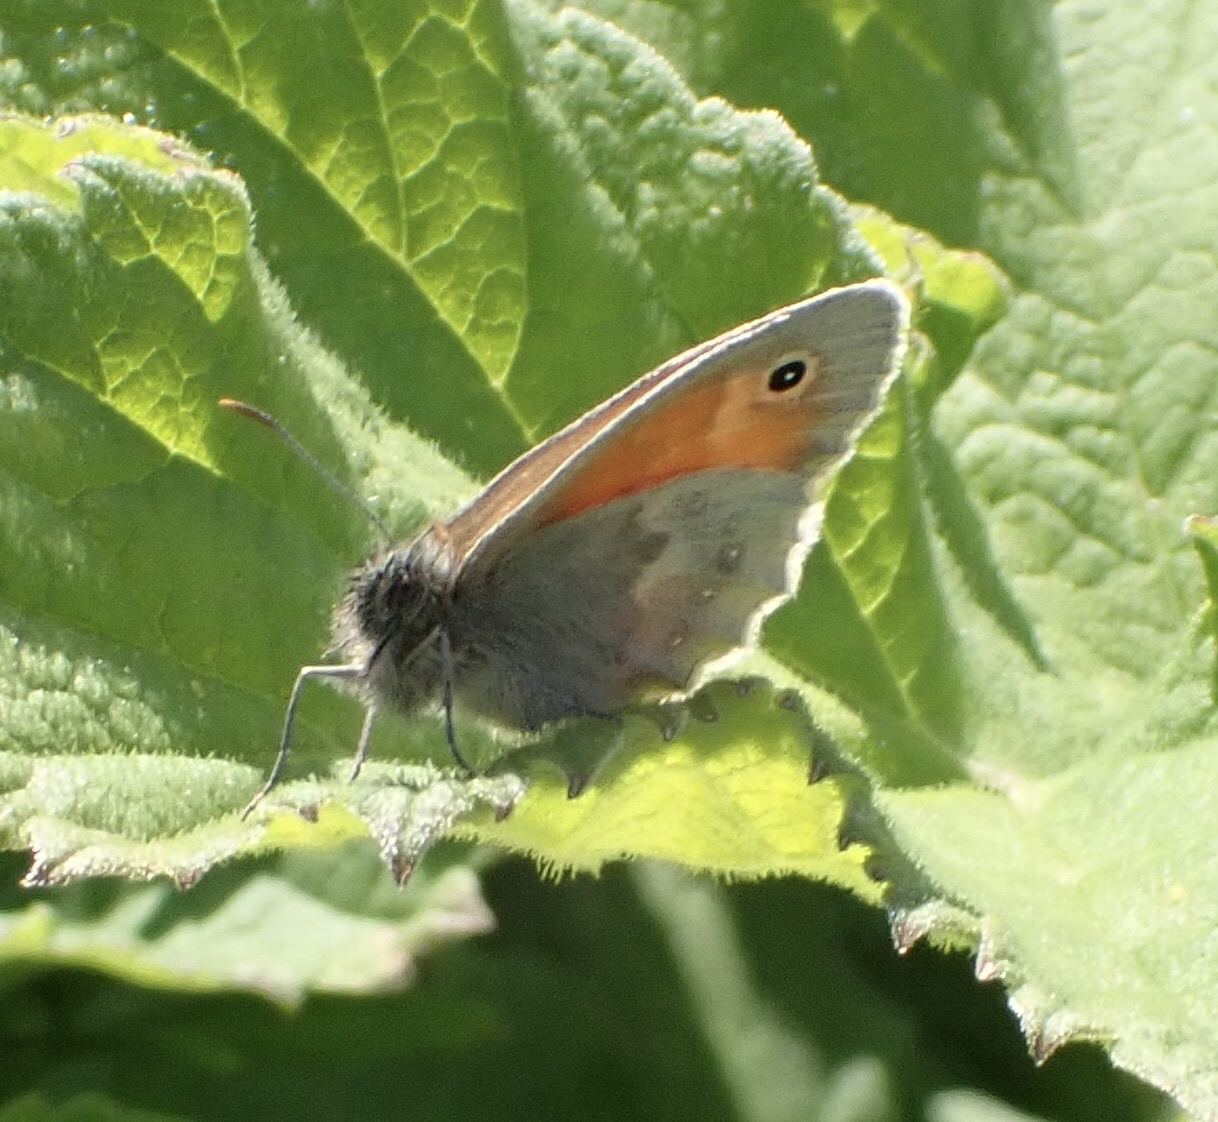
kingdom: Animalia
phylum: Arthropoda
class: Insecta
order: Lepidoptera
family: Nymphalidae
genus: Coenonympha
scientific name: Coenonympha pamphilus
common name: Small heath
